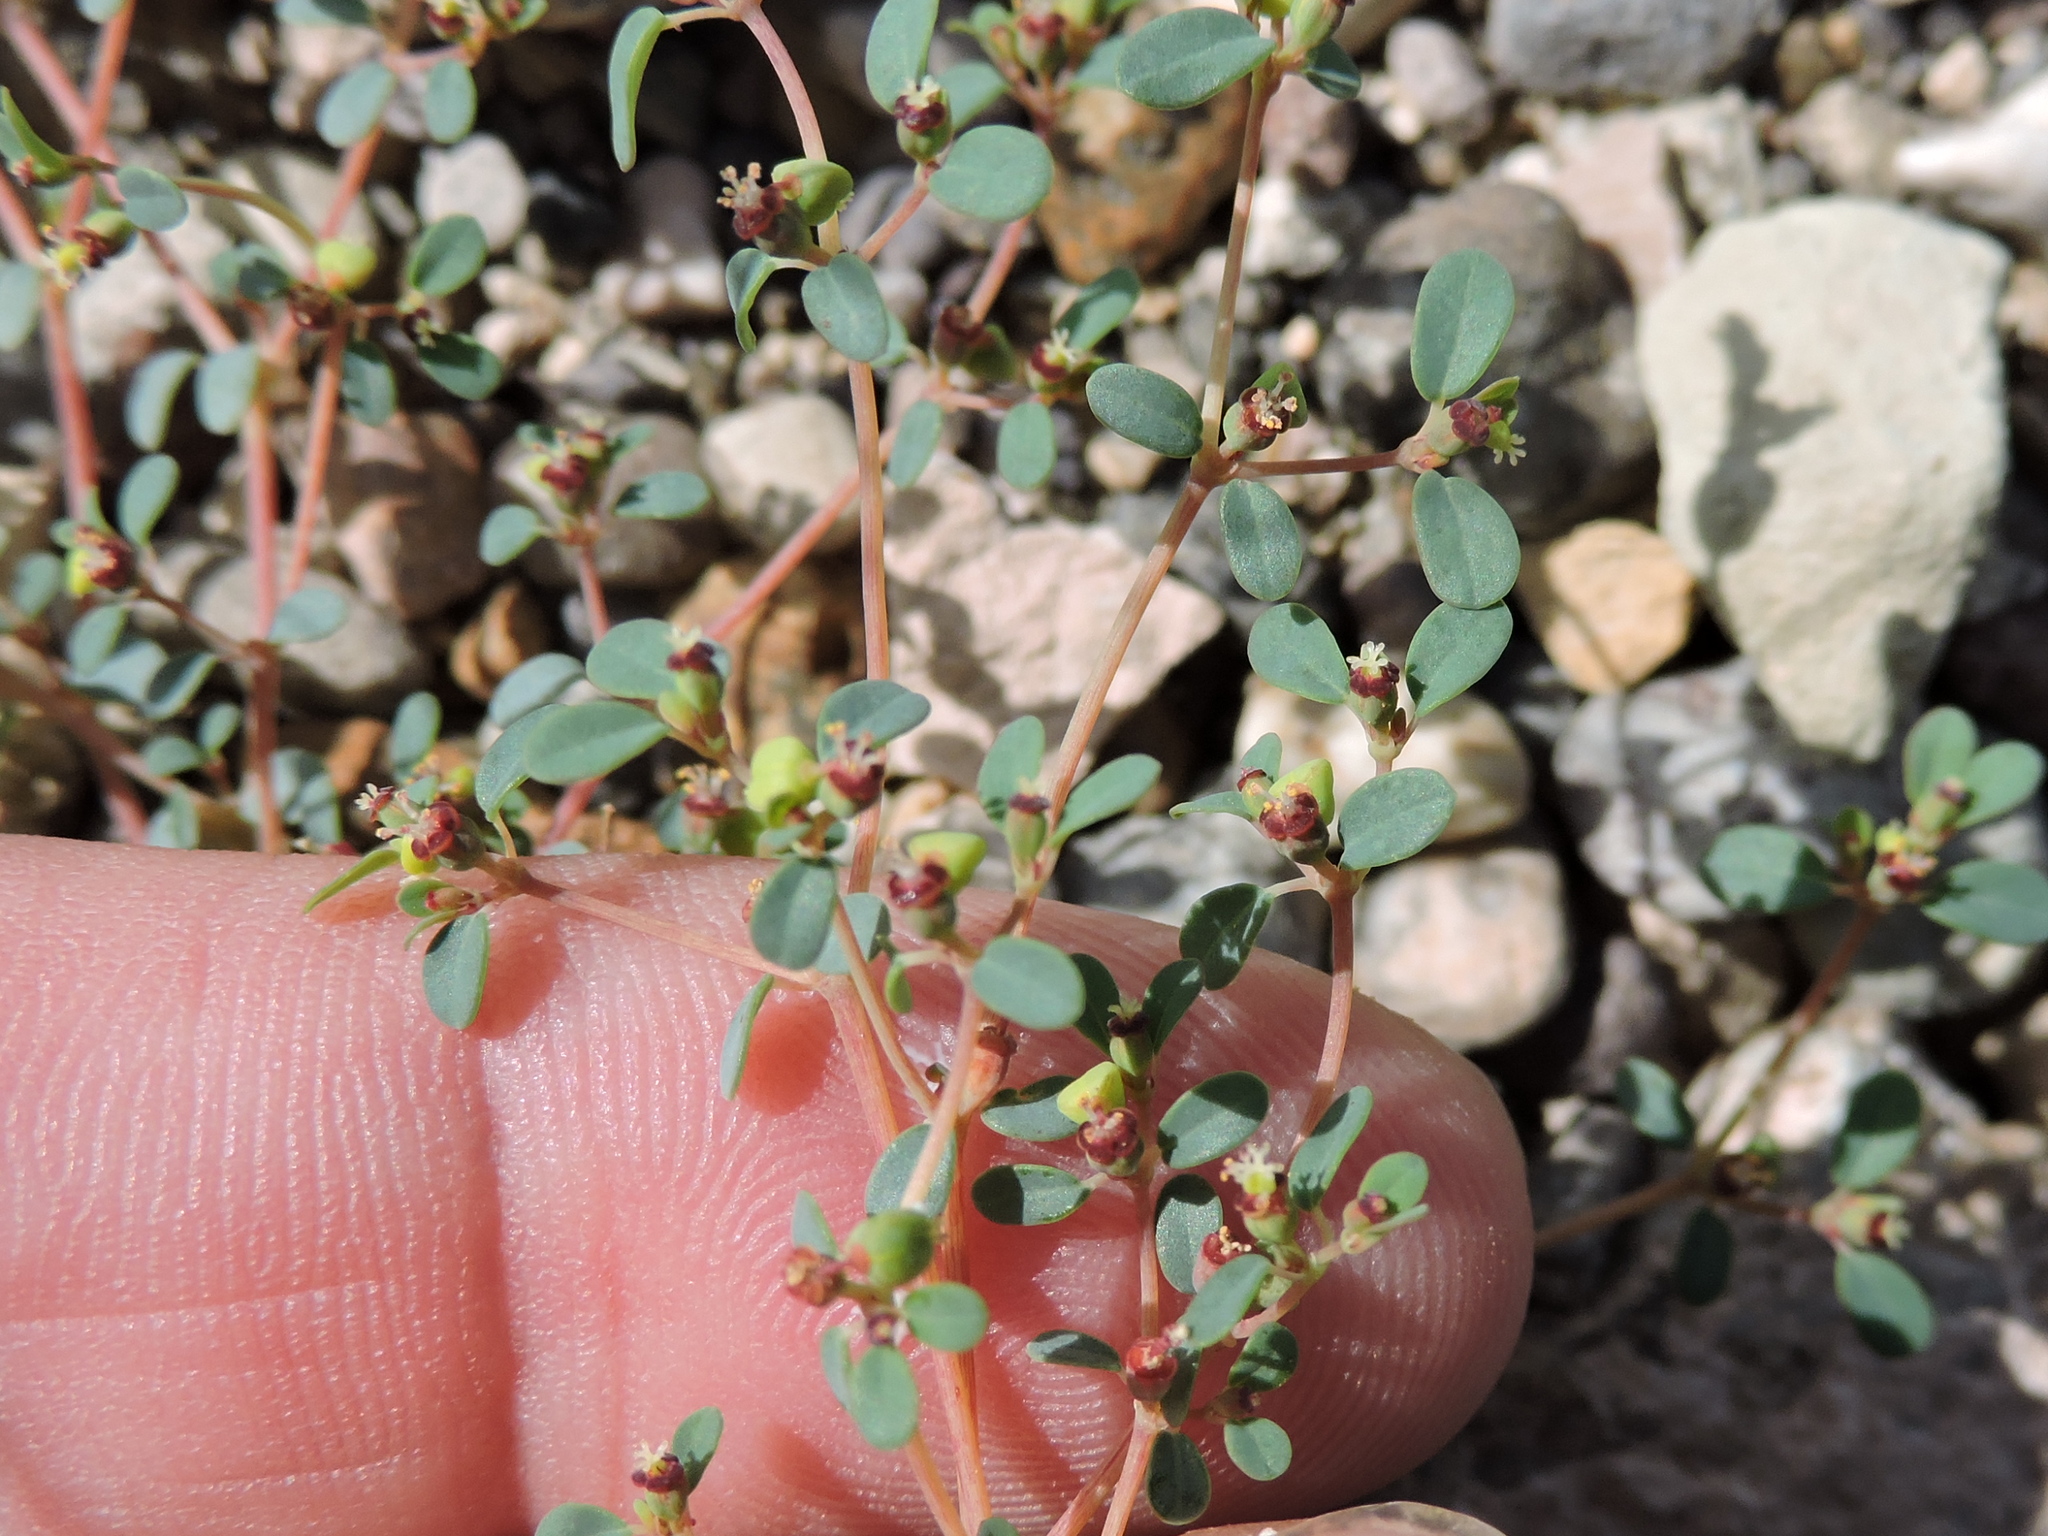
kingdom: Plantae
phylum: Tracheophyta
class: Magnoliopsida
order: Malpighiales
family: Euphorbiaceae
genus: Euphorbia
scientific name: Euphorbia simulans
